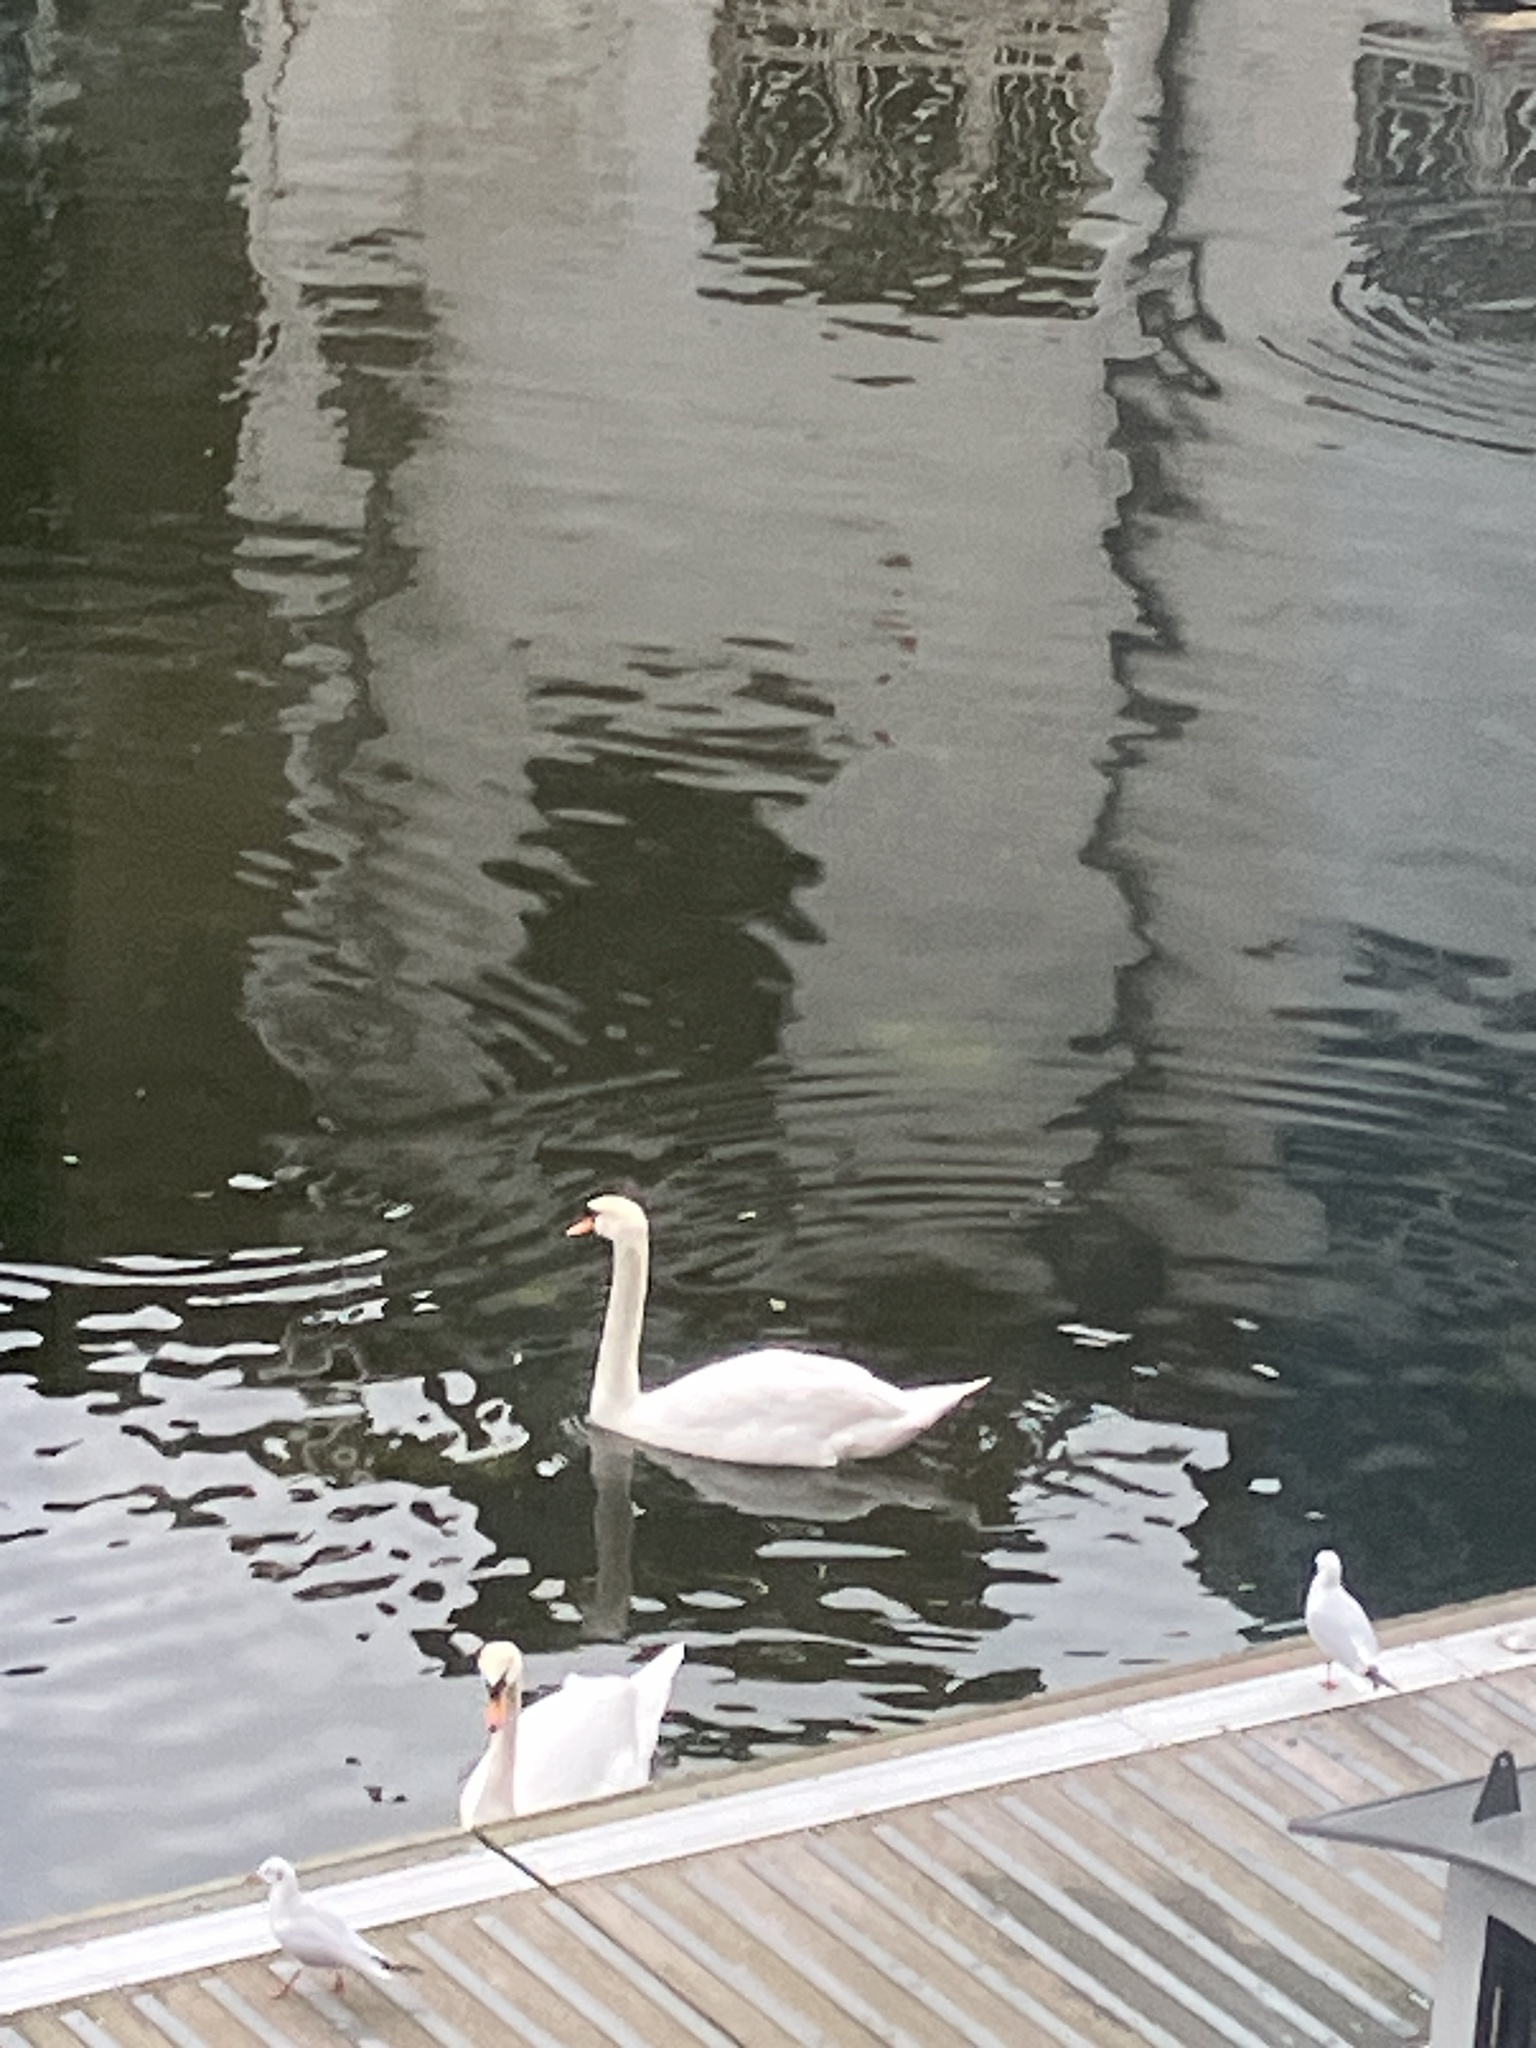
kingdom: Animalia
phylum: Chordata
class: Aves
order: Anseriformes
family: Anatidae
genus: Cygnus
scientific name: Cygnus olor
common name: Mute swan
